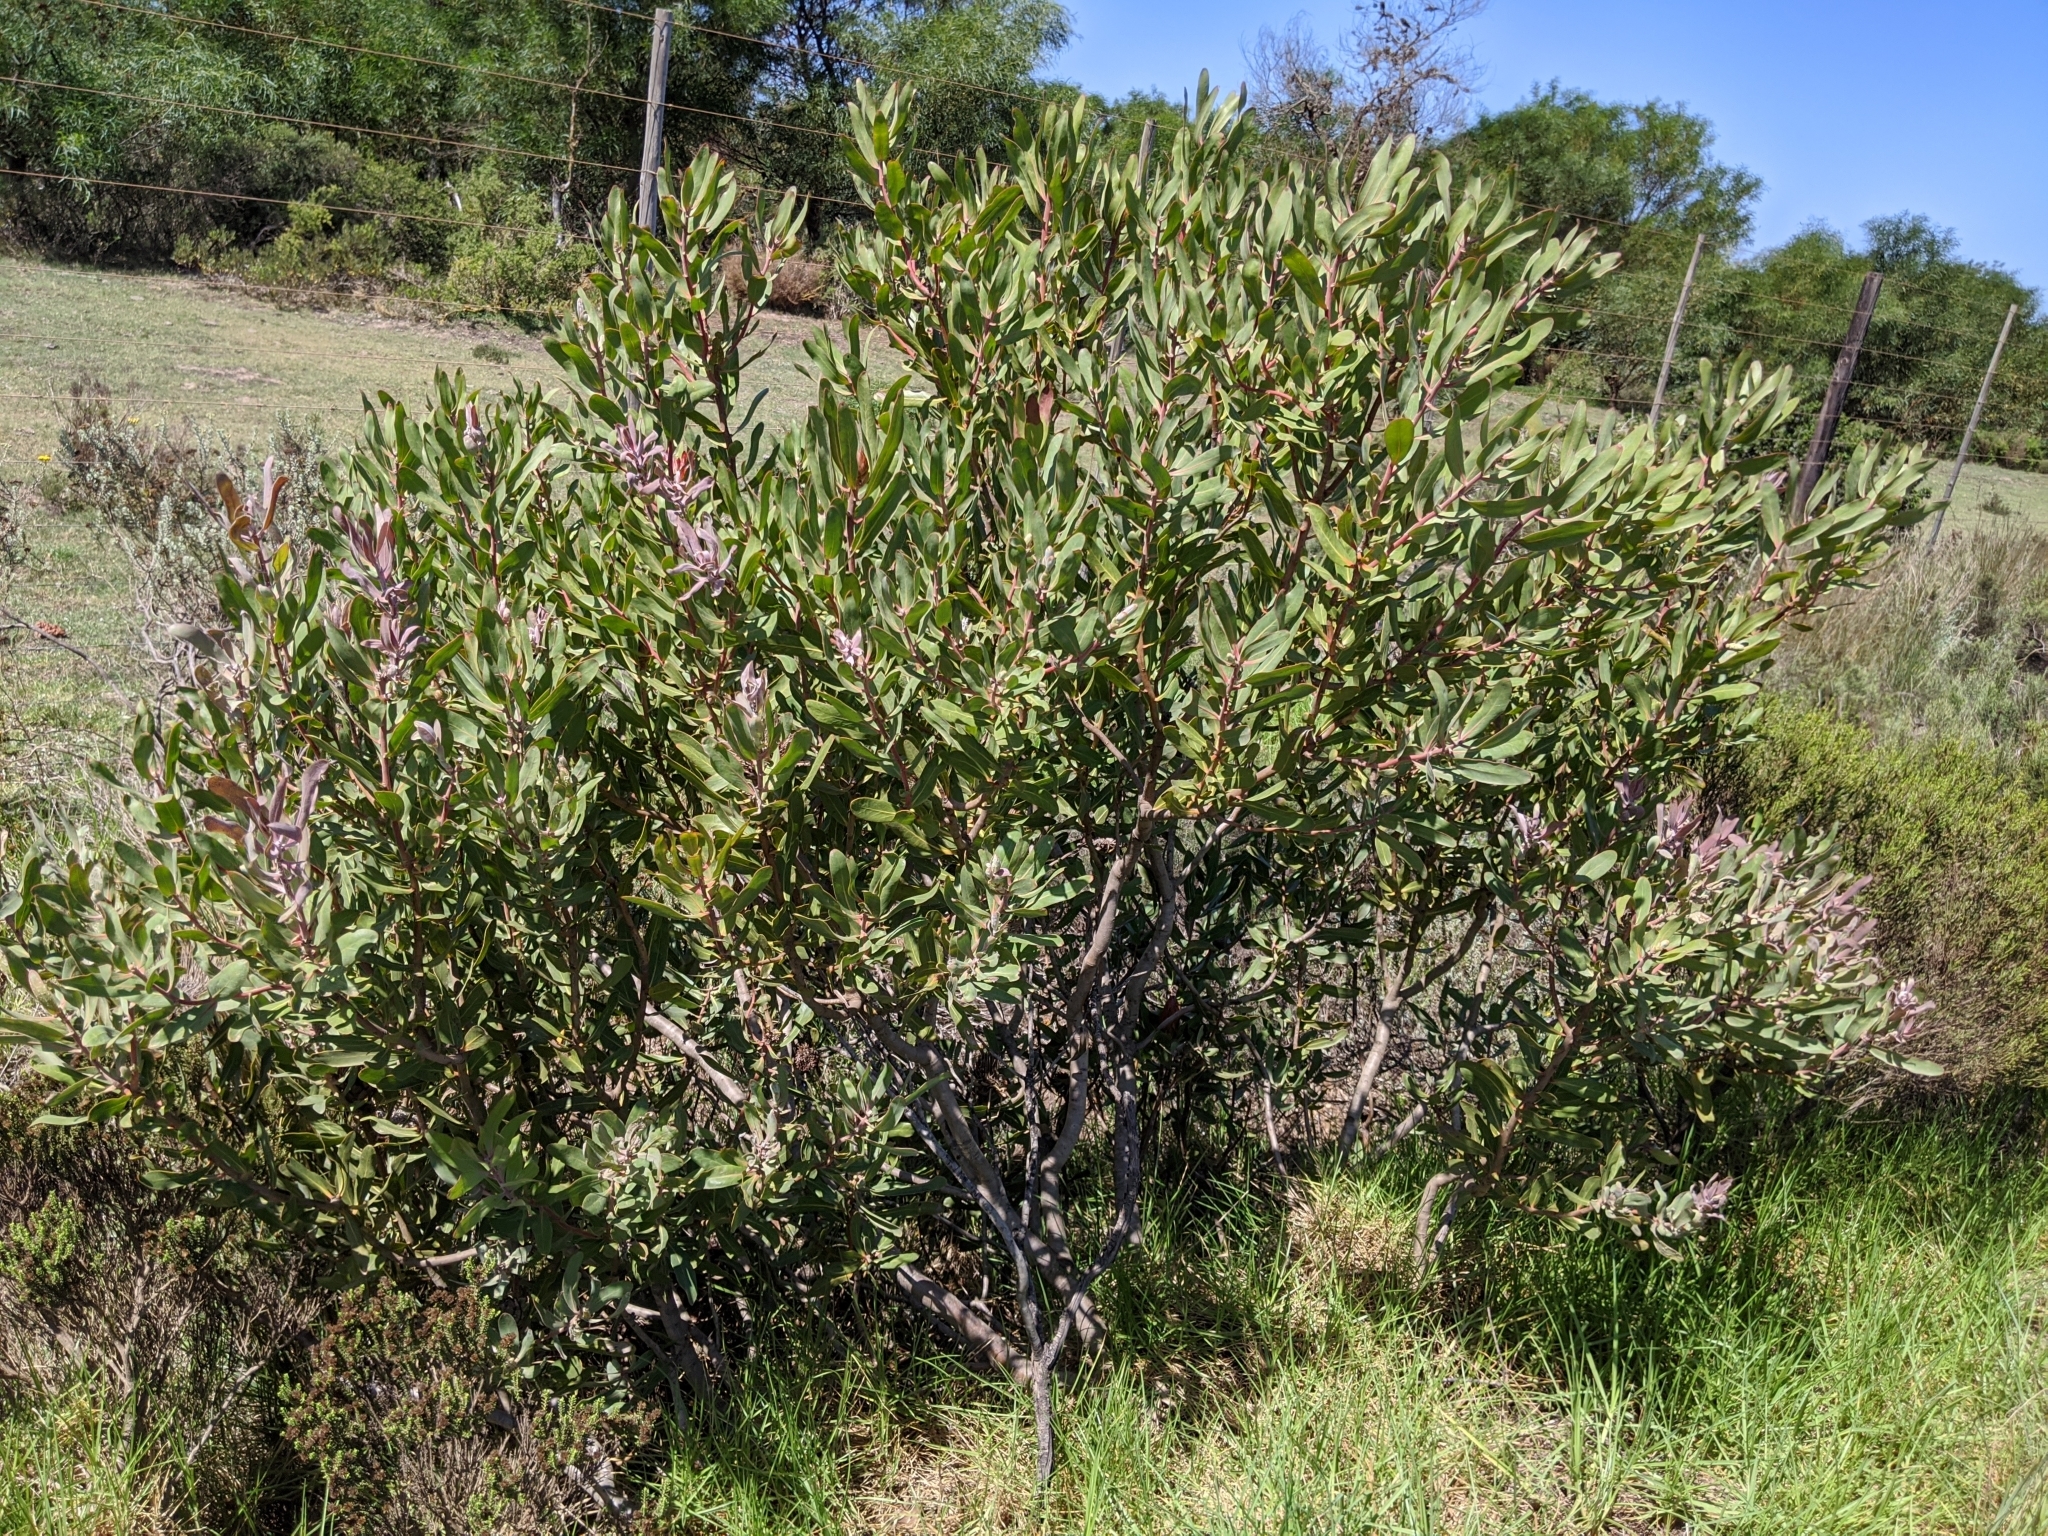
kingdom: Plantae
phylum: Tracheophyta
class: Magnoliopsida
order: Proteales
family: Proteaceae
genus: Protea
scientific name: Protea susannae
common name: Foetid-leaf sugarbush
